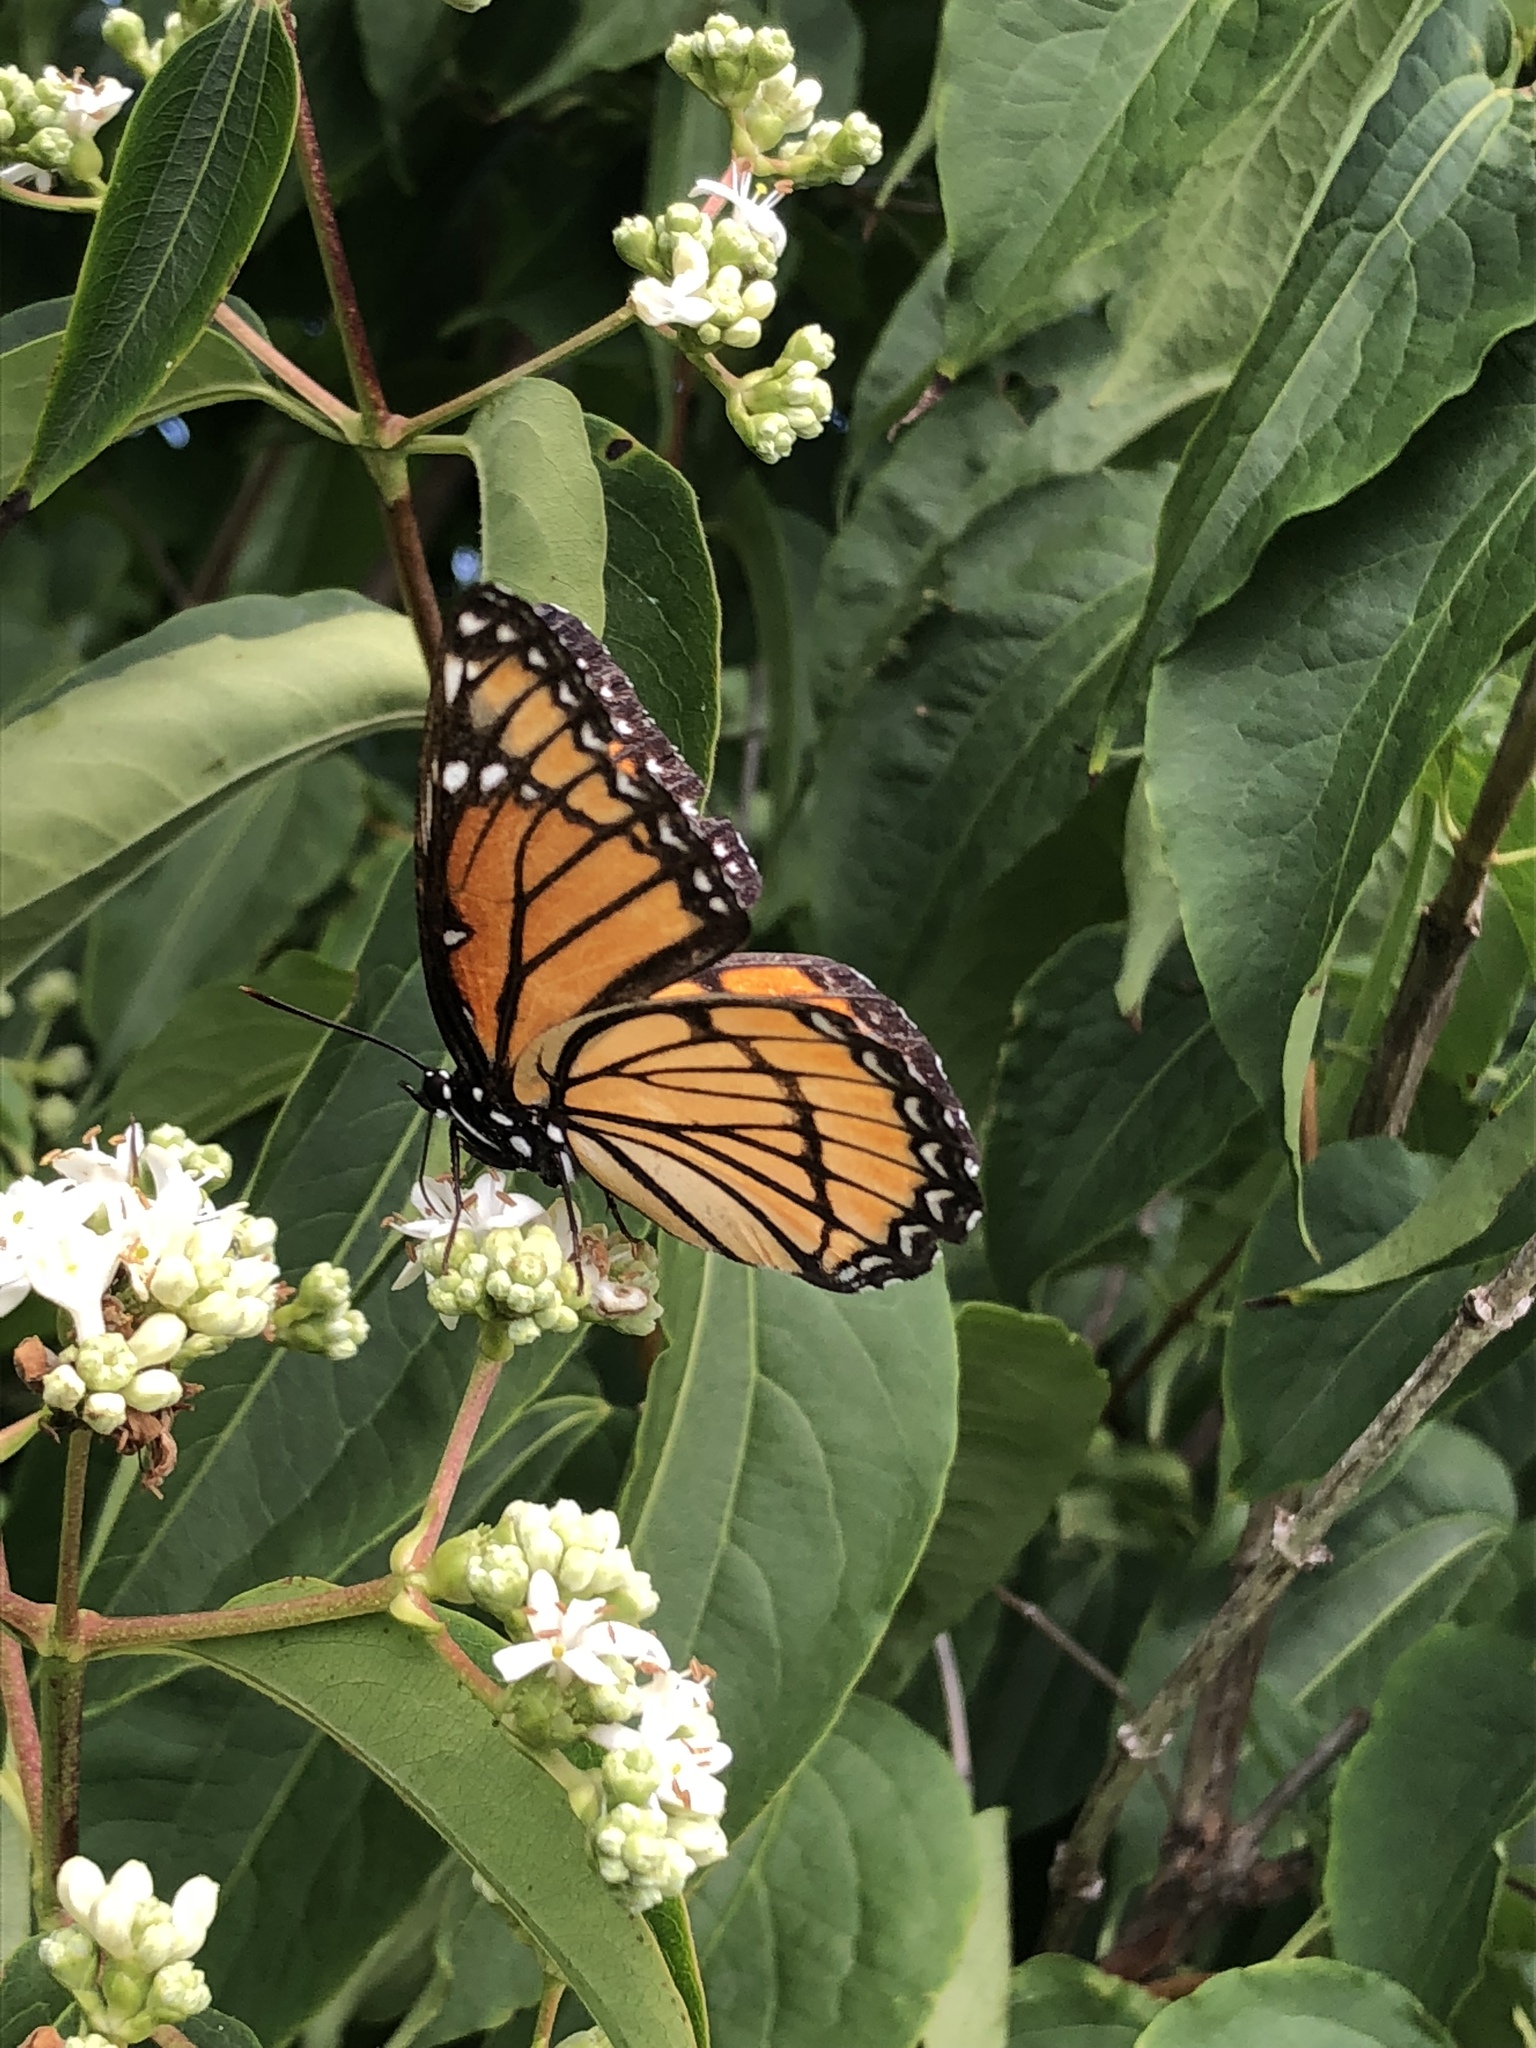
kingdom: Animalia
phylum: Arthropoda
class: Insecta
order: Lepidoptera
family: Nymphalidae
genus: Limenitis
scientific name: Limenitis archippus
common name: Viceroy
